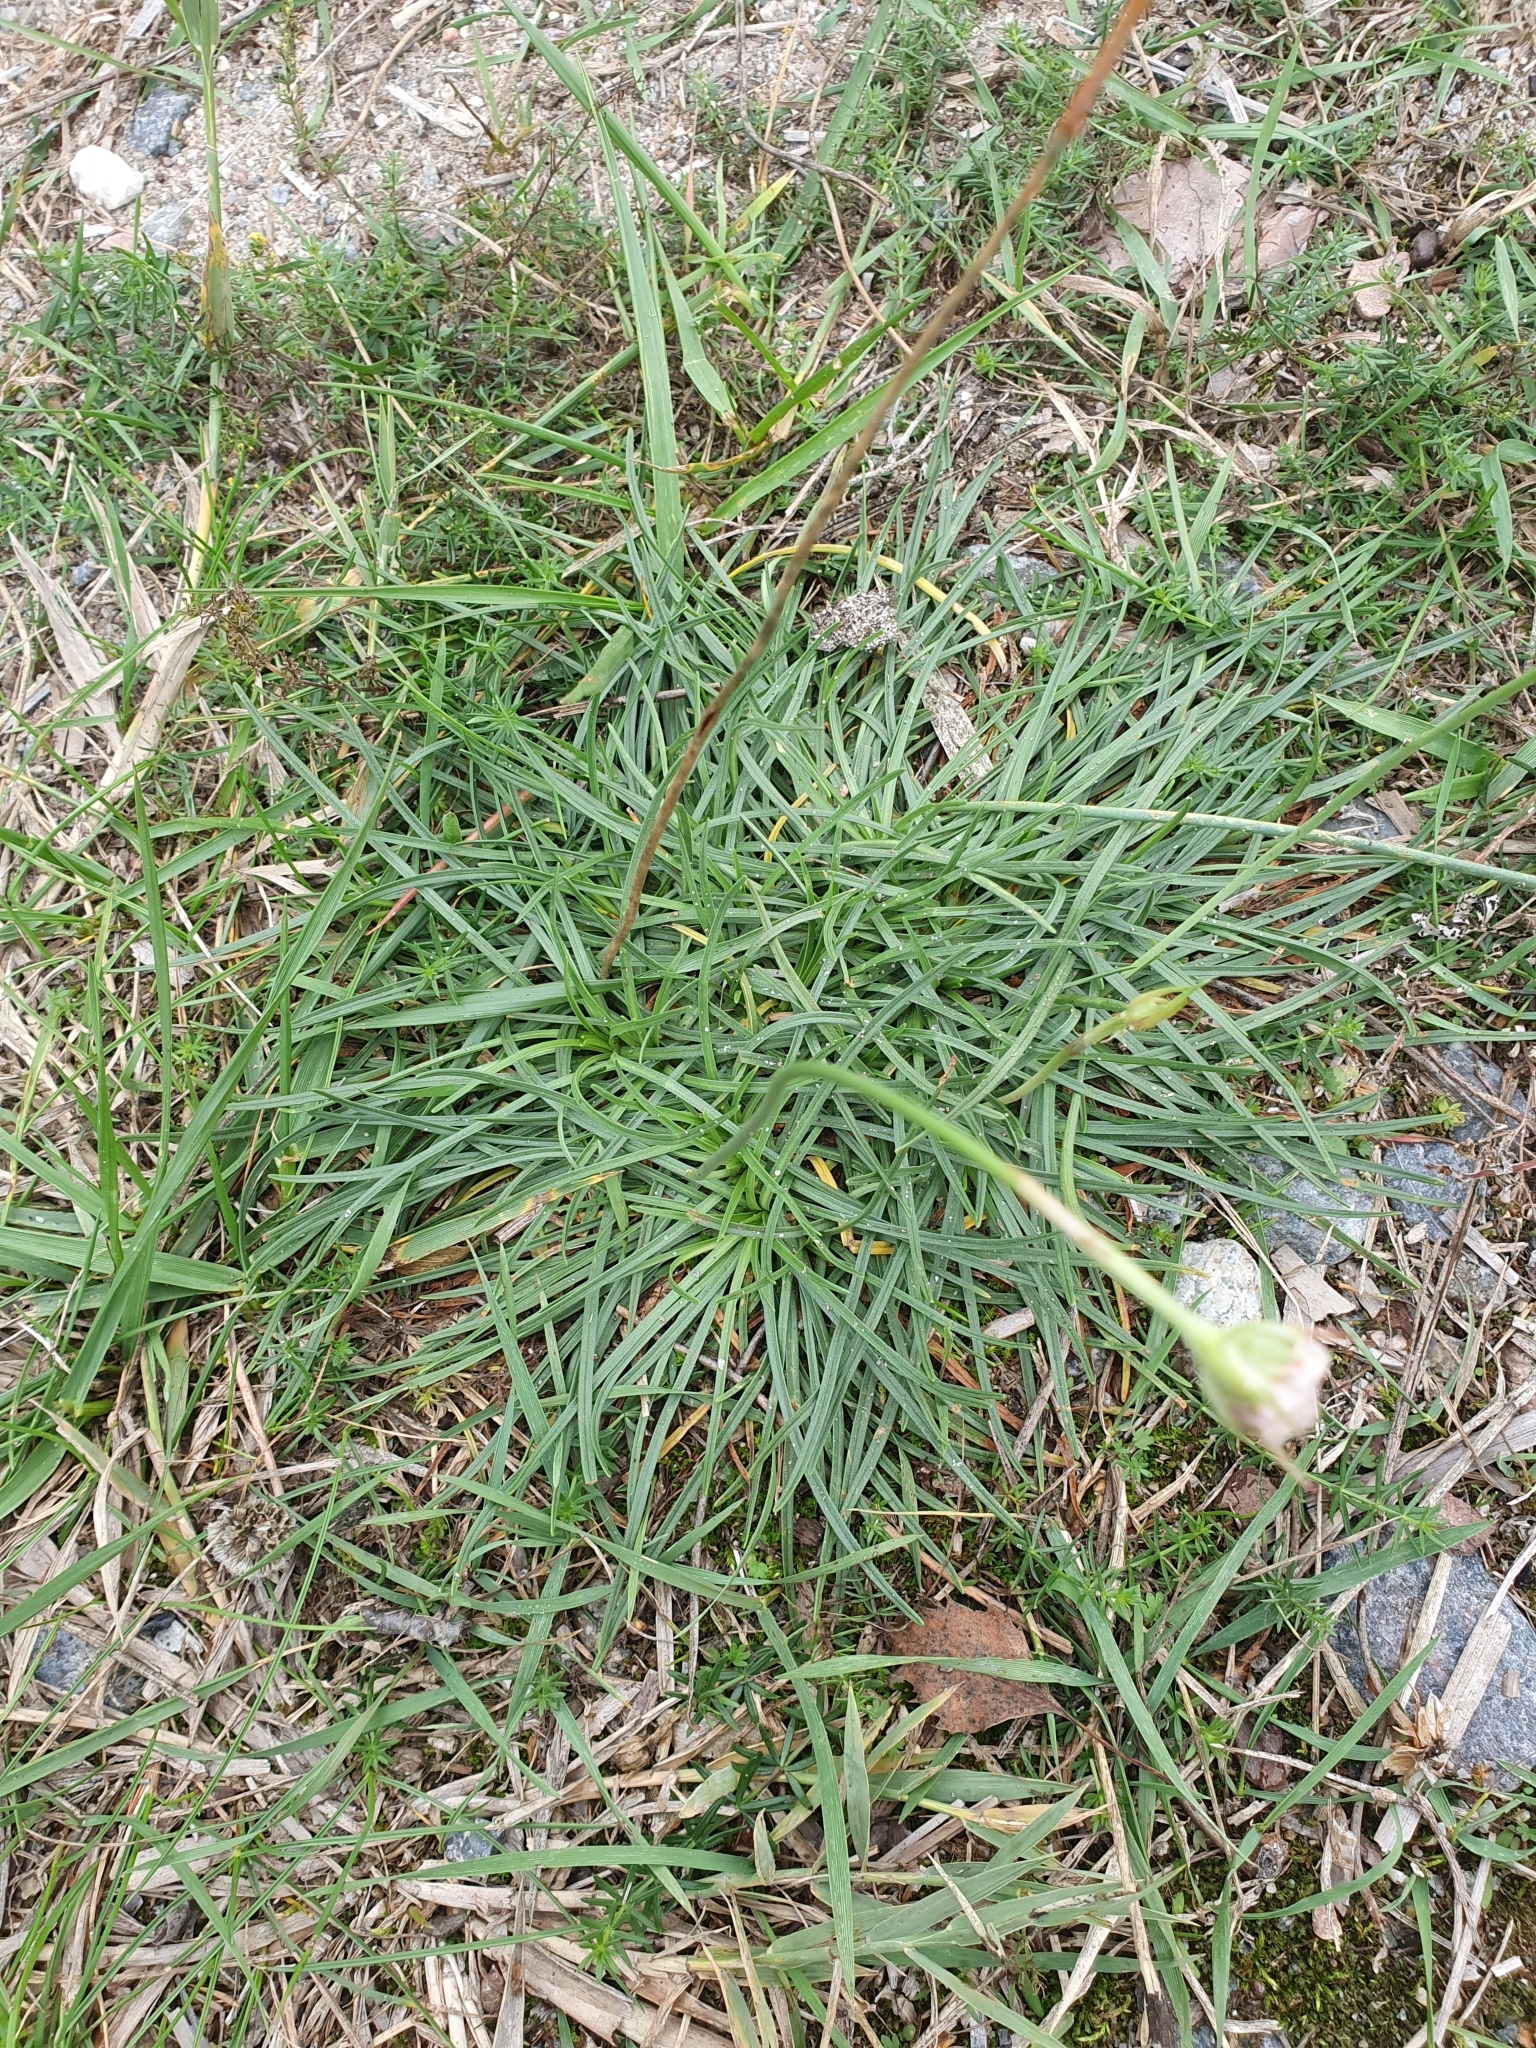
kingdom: Plantae
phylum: Tracheophyta
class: Magnoliopsida
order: Caryophyllales
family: Plumbaginaceae
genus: Armeria
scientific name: Armeria maritima
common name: Thrift
